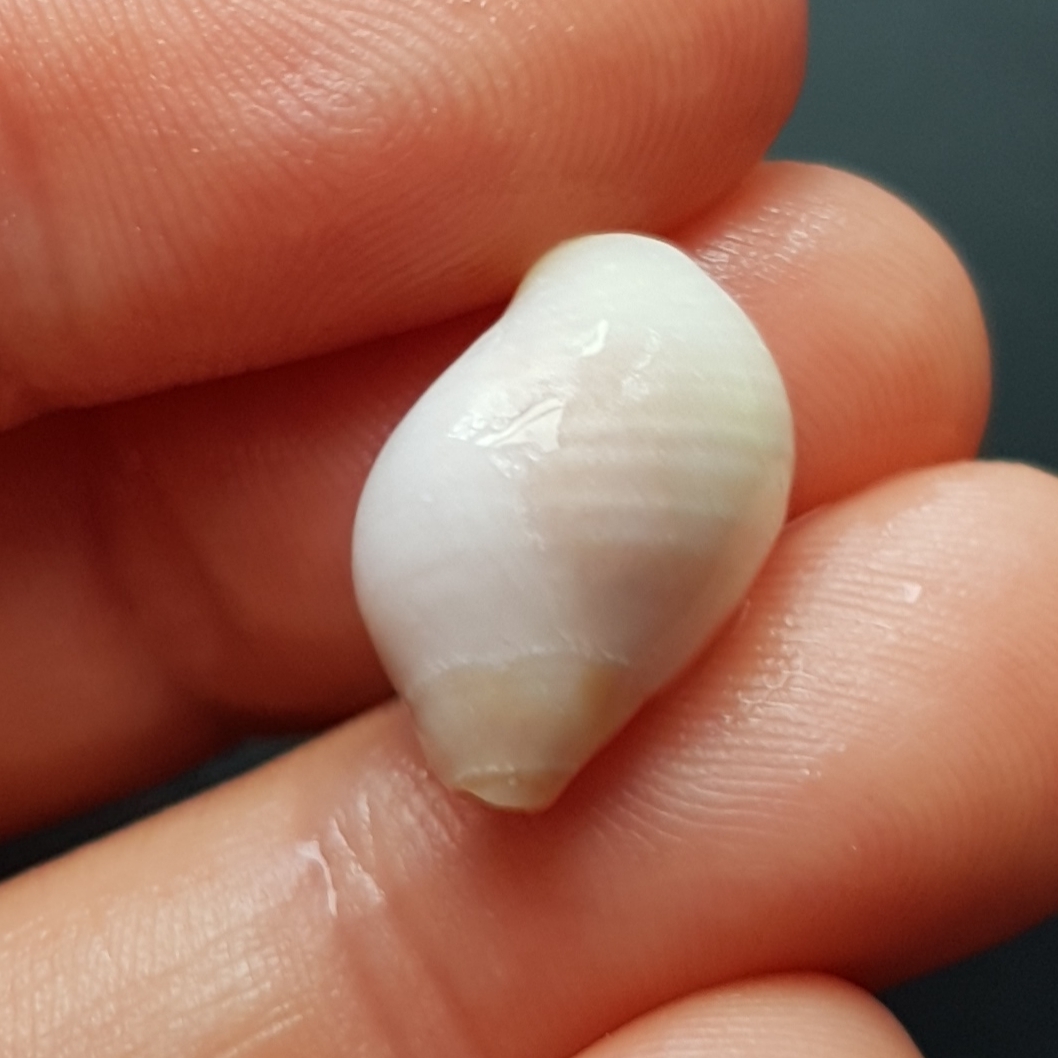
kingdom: Animalia
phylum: Mollusca
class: Gastropoda
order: Neogastropoda
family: Muricidae
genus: Nucella
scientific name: Nucella lapillus
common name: Dog whelk
